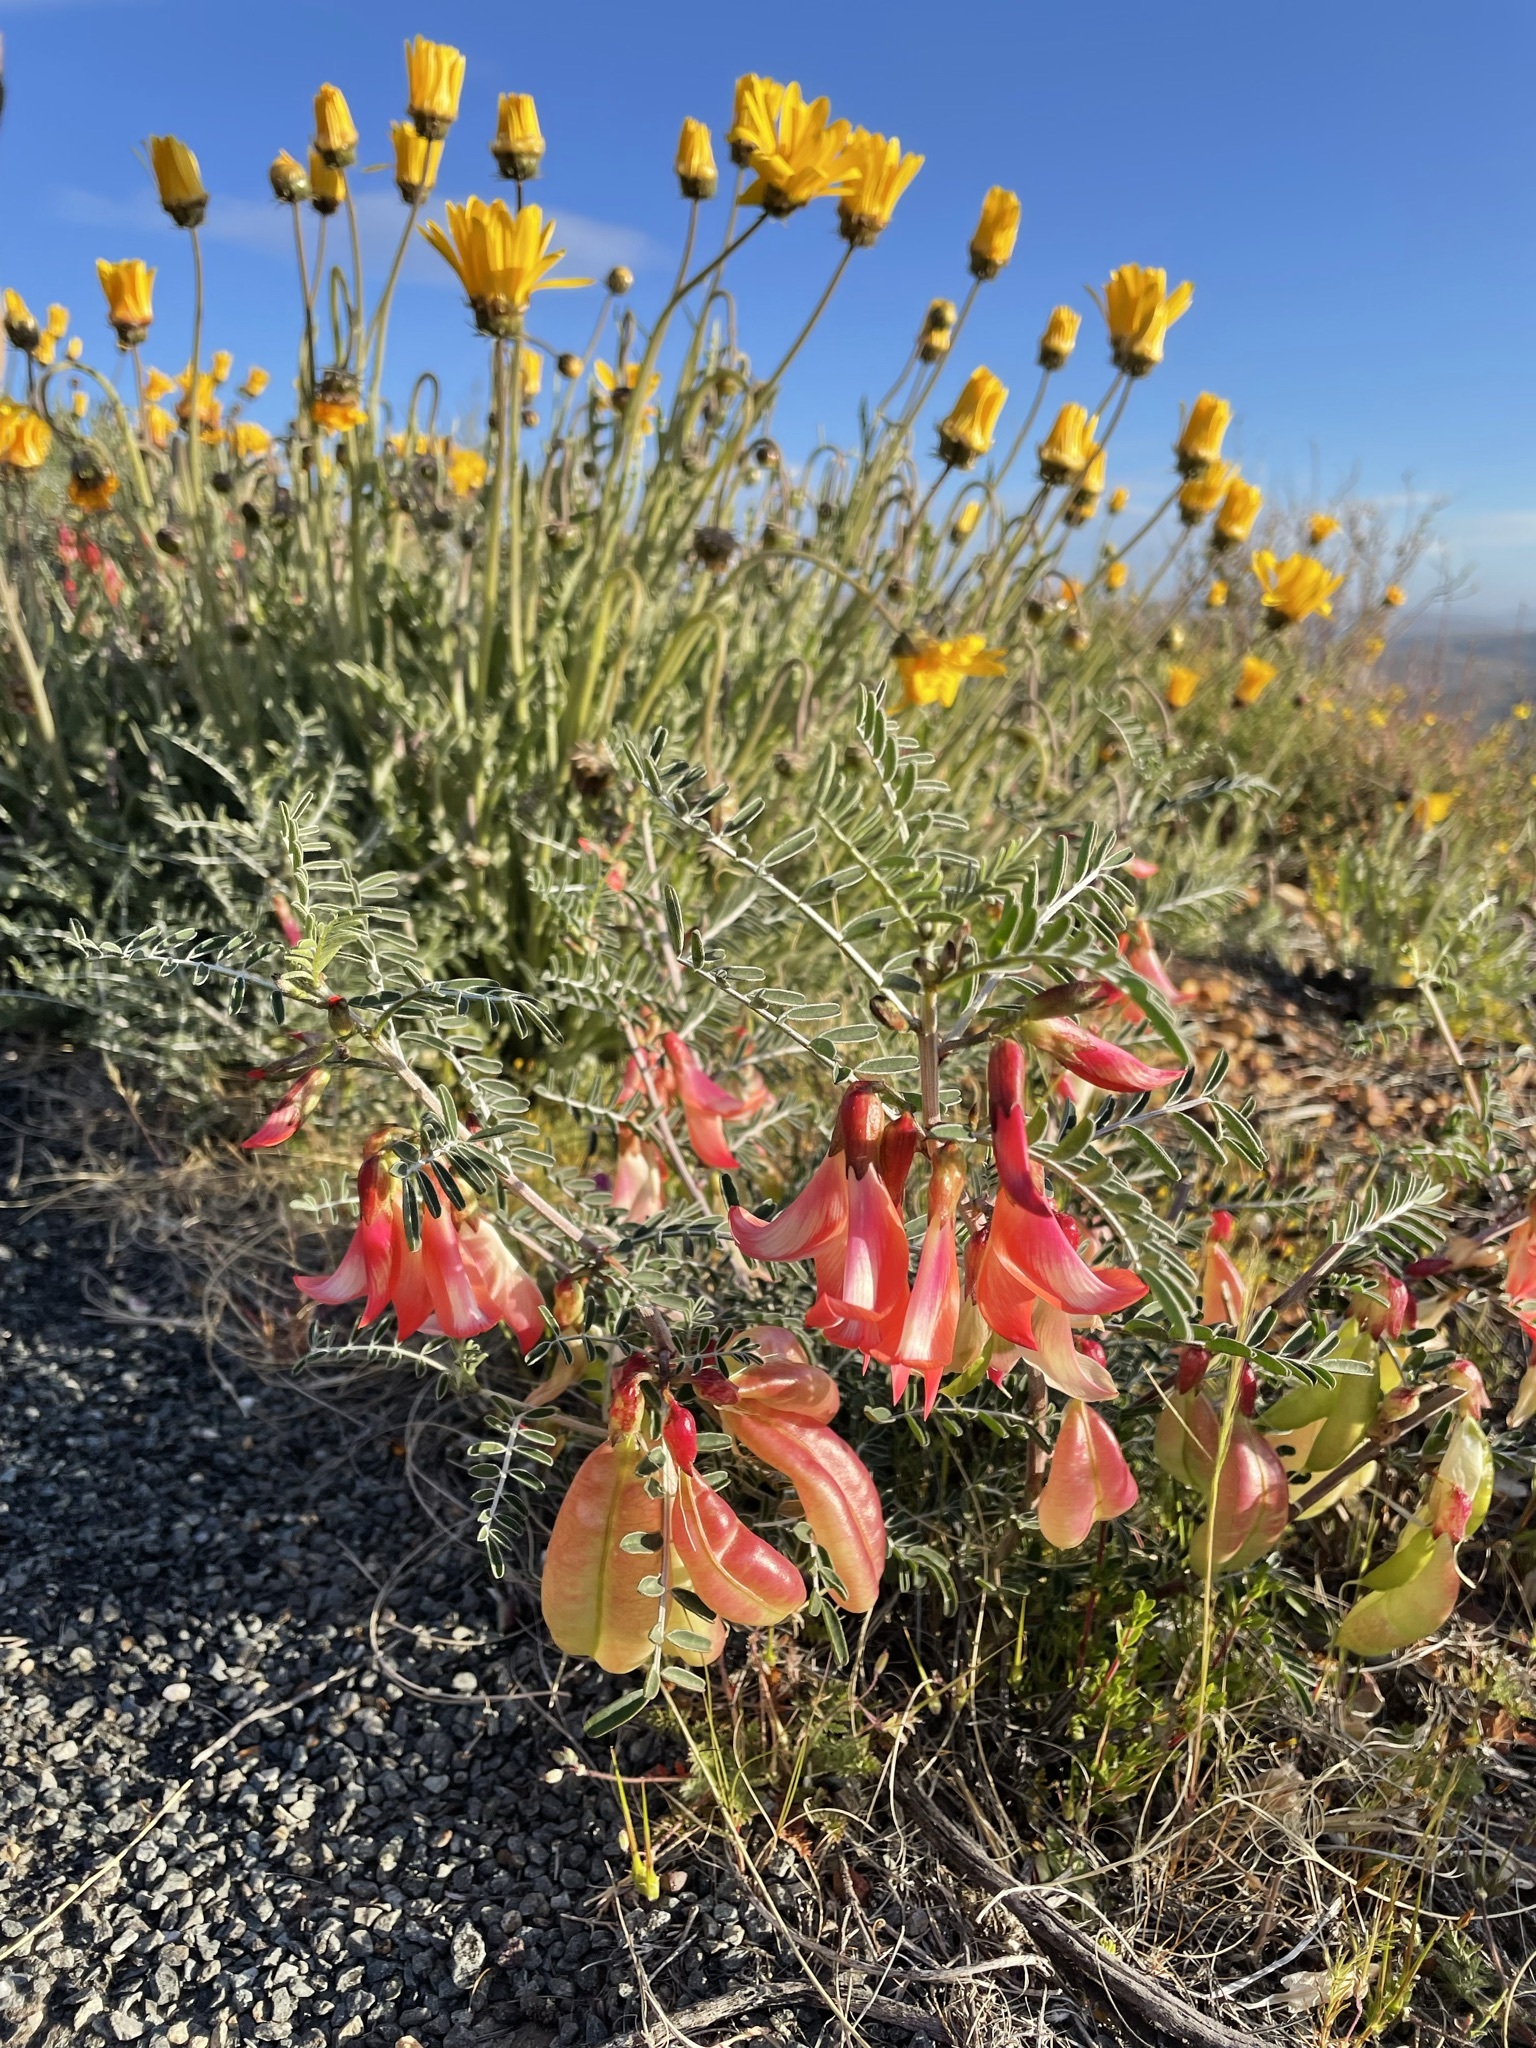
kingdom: Plantae
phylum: Tracheophyta
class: Magnoliopsida
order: Fabales
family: Fabaceae
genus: Lessertia
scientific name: Lessertia frutescens
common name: Balloon-pea
